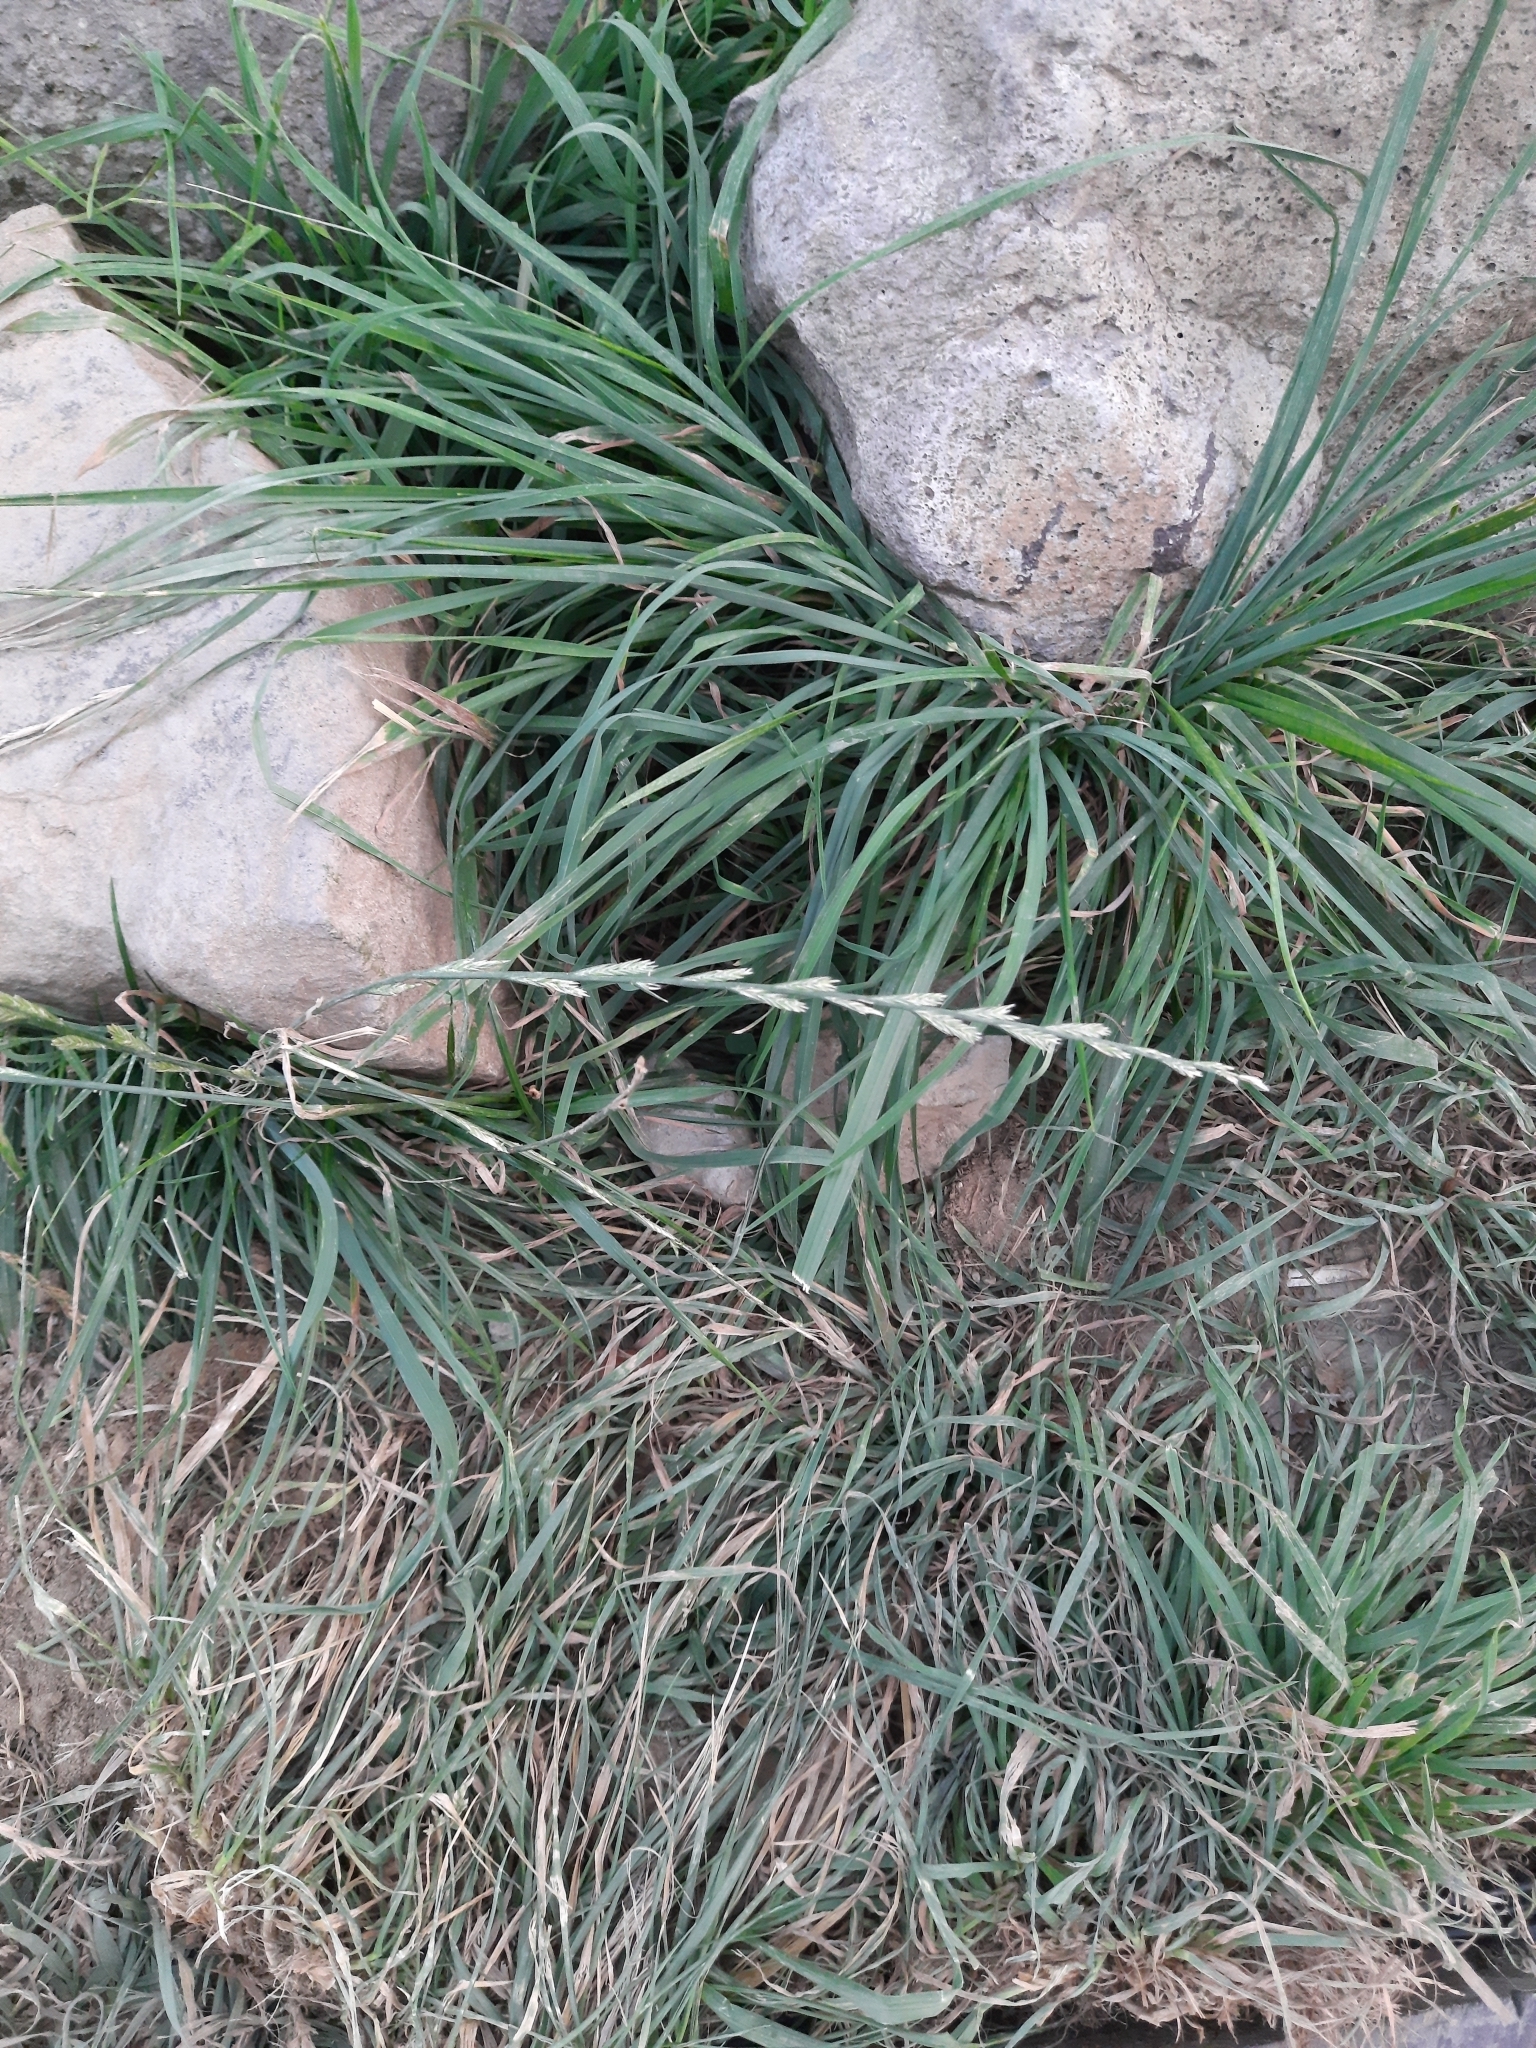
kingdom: Plantae
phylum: Tracheophyta
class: Liliopsida
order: Poales
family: Poaceae
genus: Lolium
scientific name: Lolium perenne
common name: Perennial ryegrass
